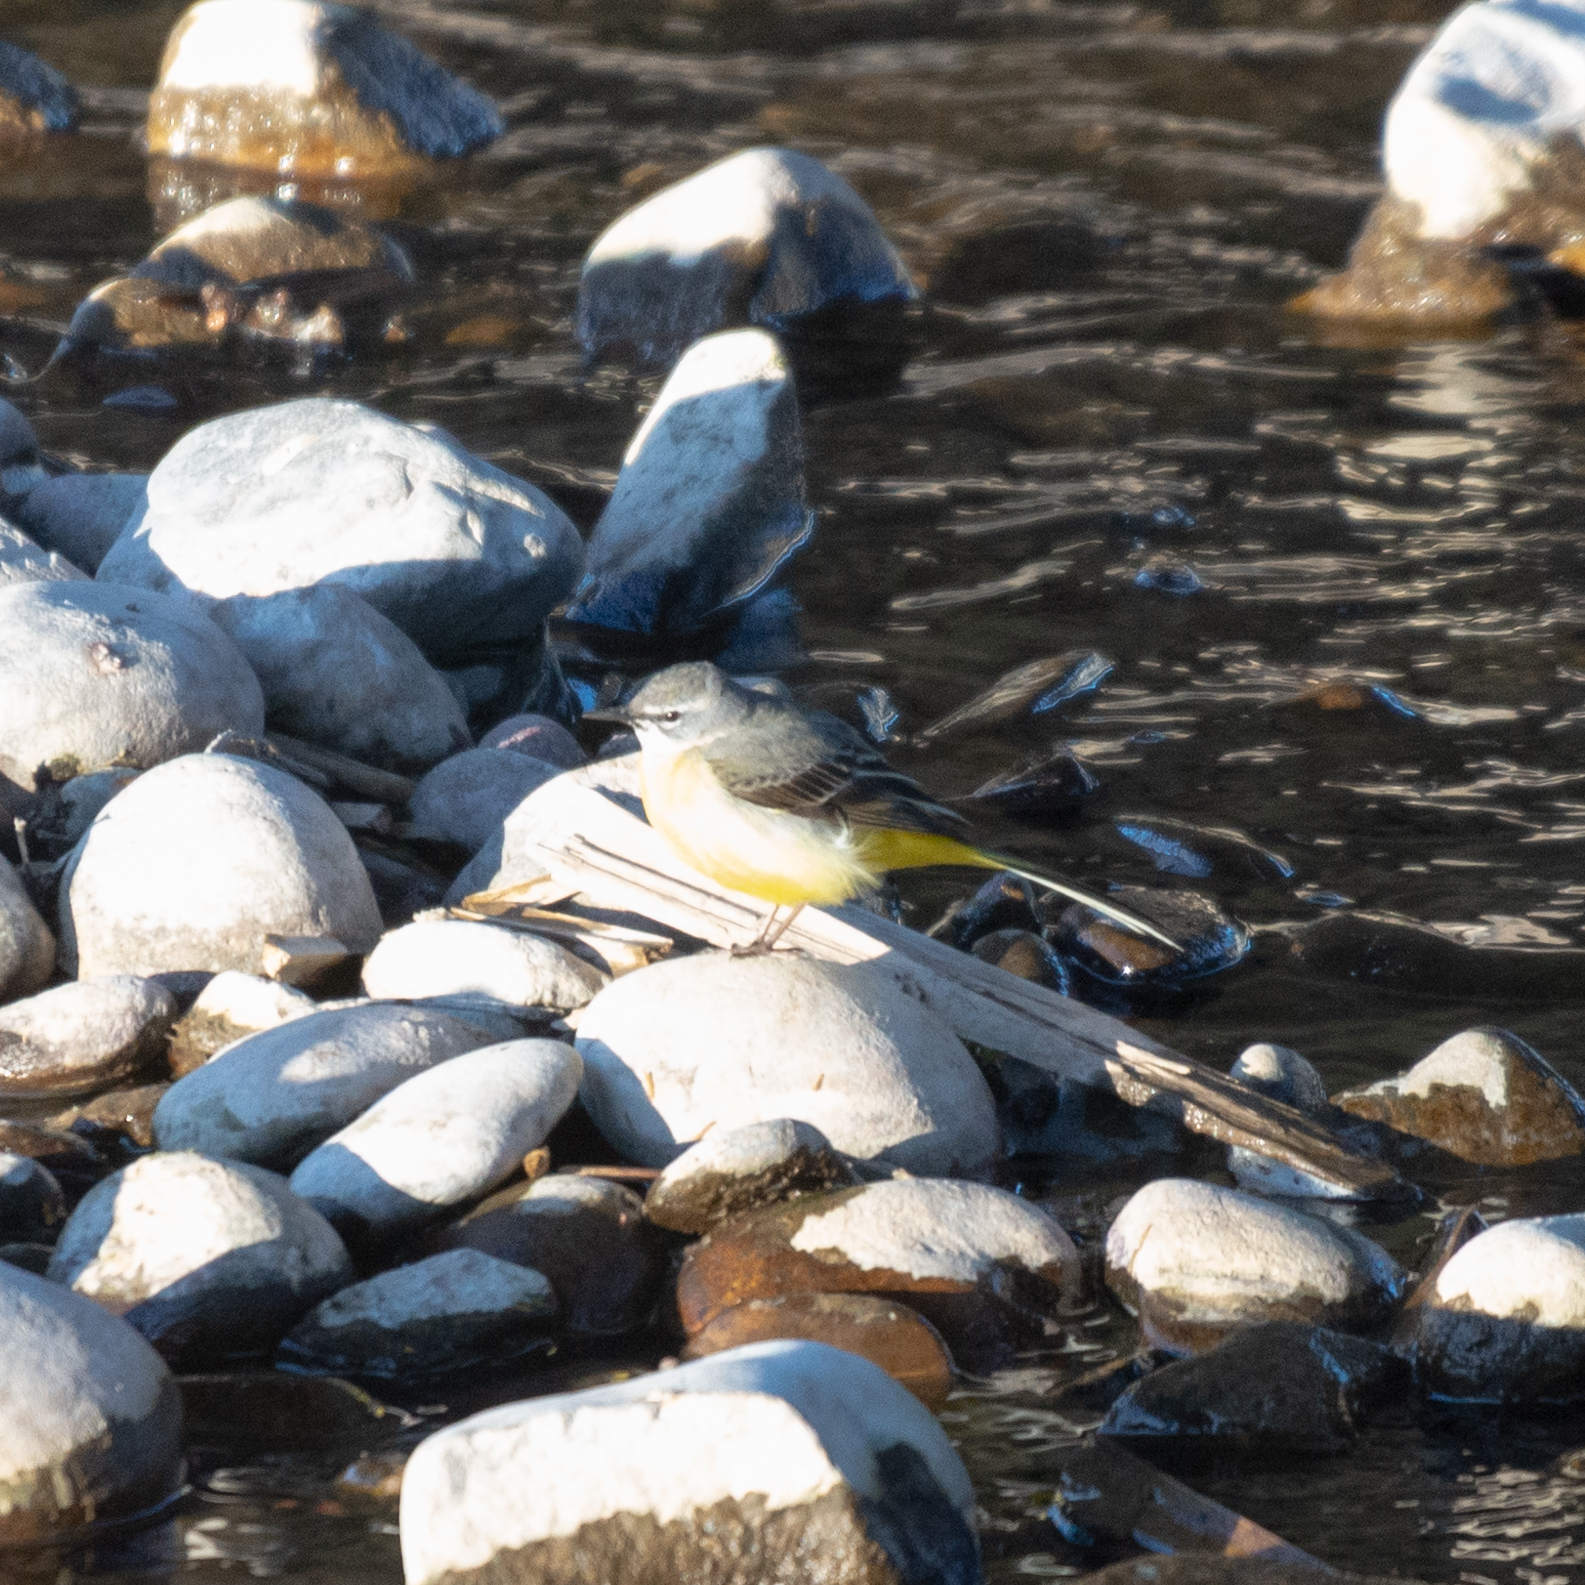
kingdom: Animalia
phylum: Chordata
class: Aves
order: Passeriformes
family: Motacillidae
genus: Motacilla
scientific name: Motacilla cinerea
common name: Grey wagtail
